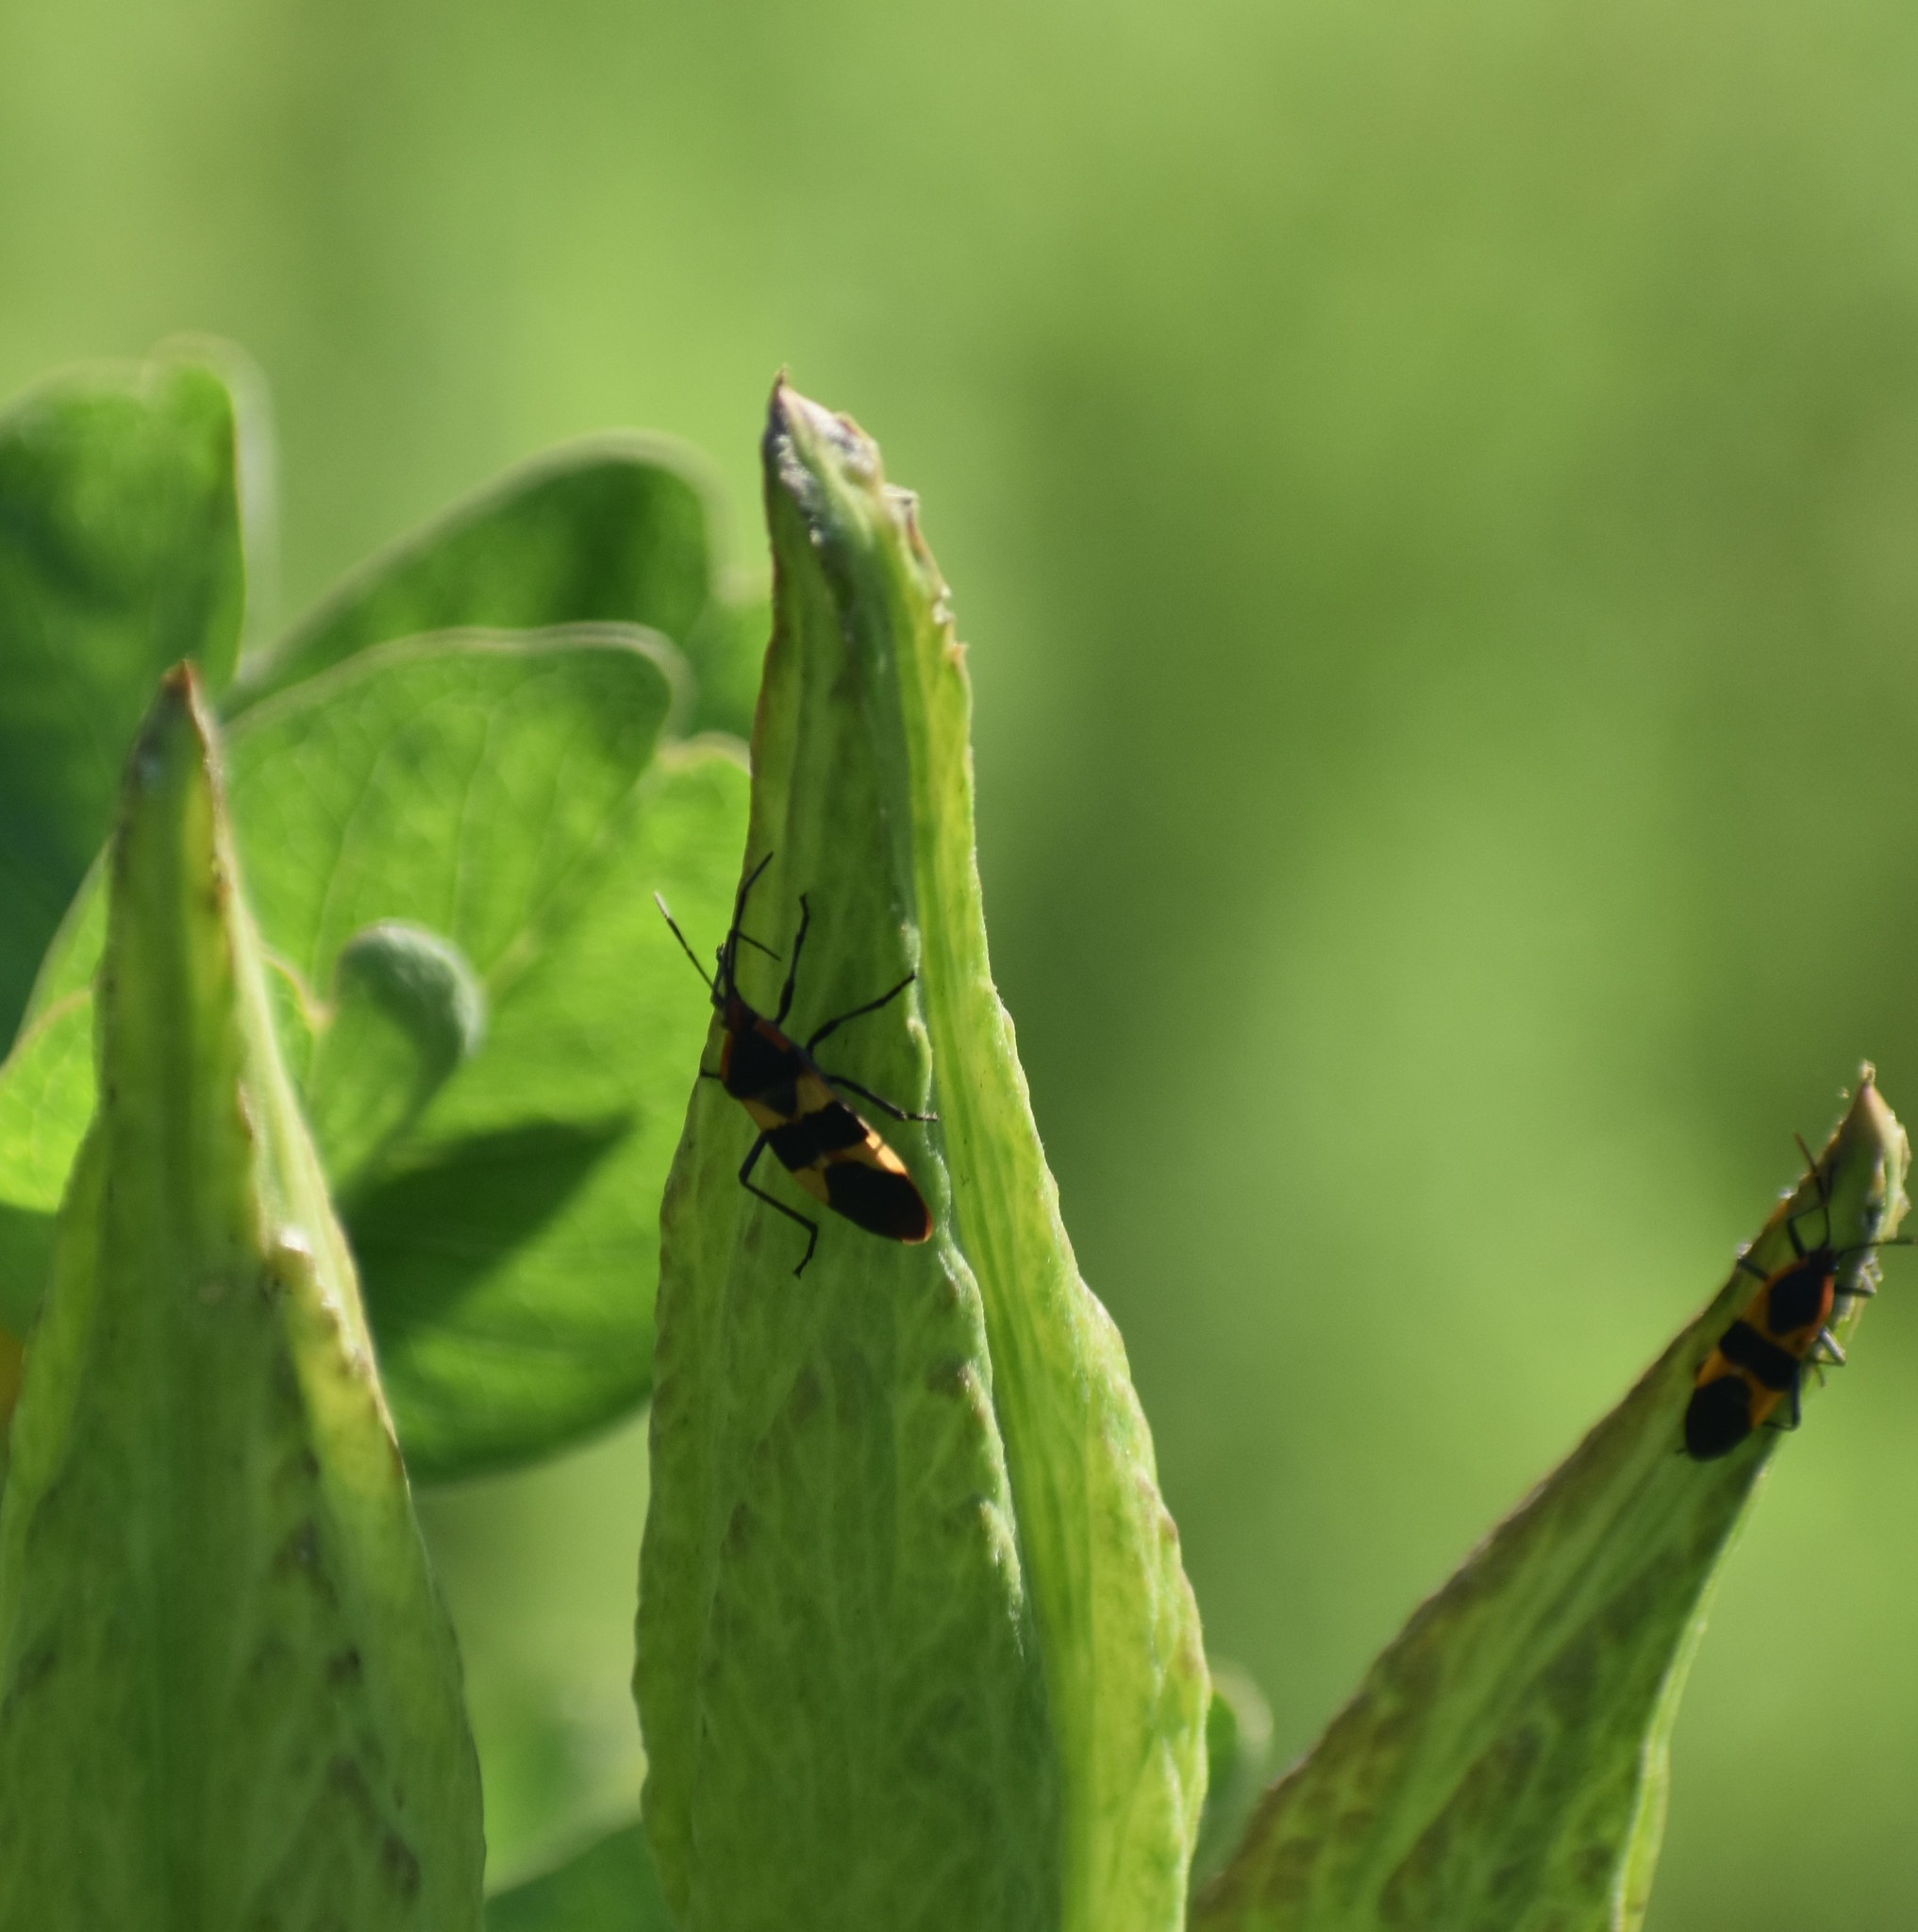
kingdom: Animalia
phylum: Arthropoda
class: Insecta
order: Hemiptera
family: Lygaeidae
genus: Oncopeltus
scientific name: Oncopeltus fasciatus
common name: Large milkweed bug
